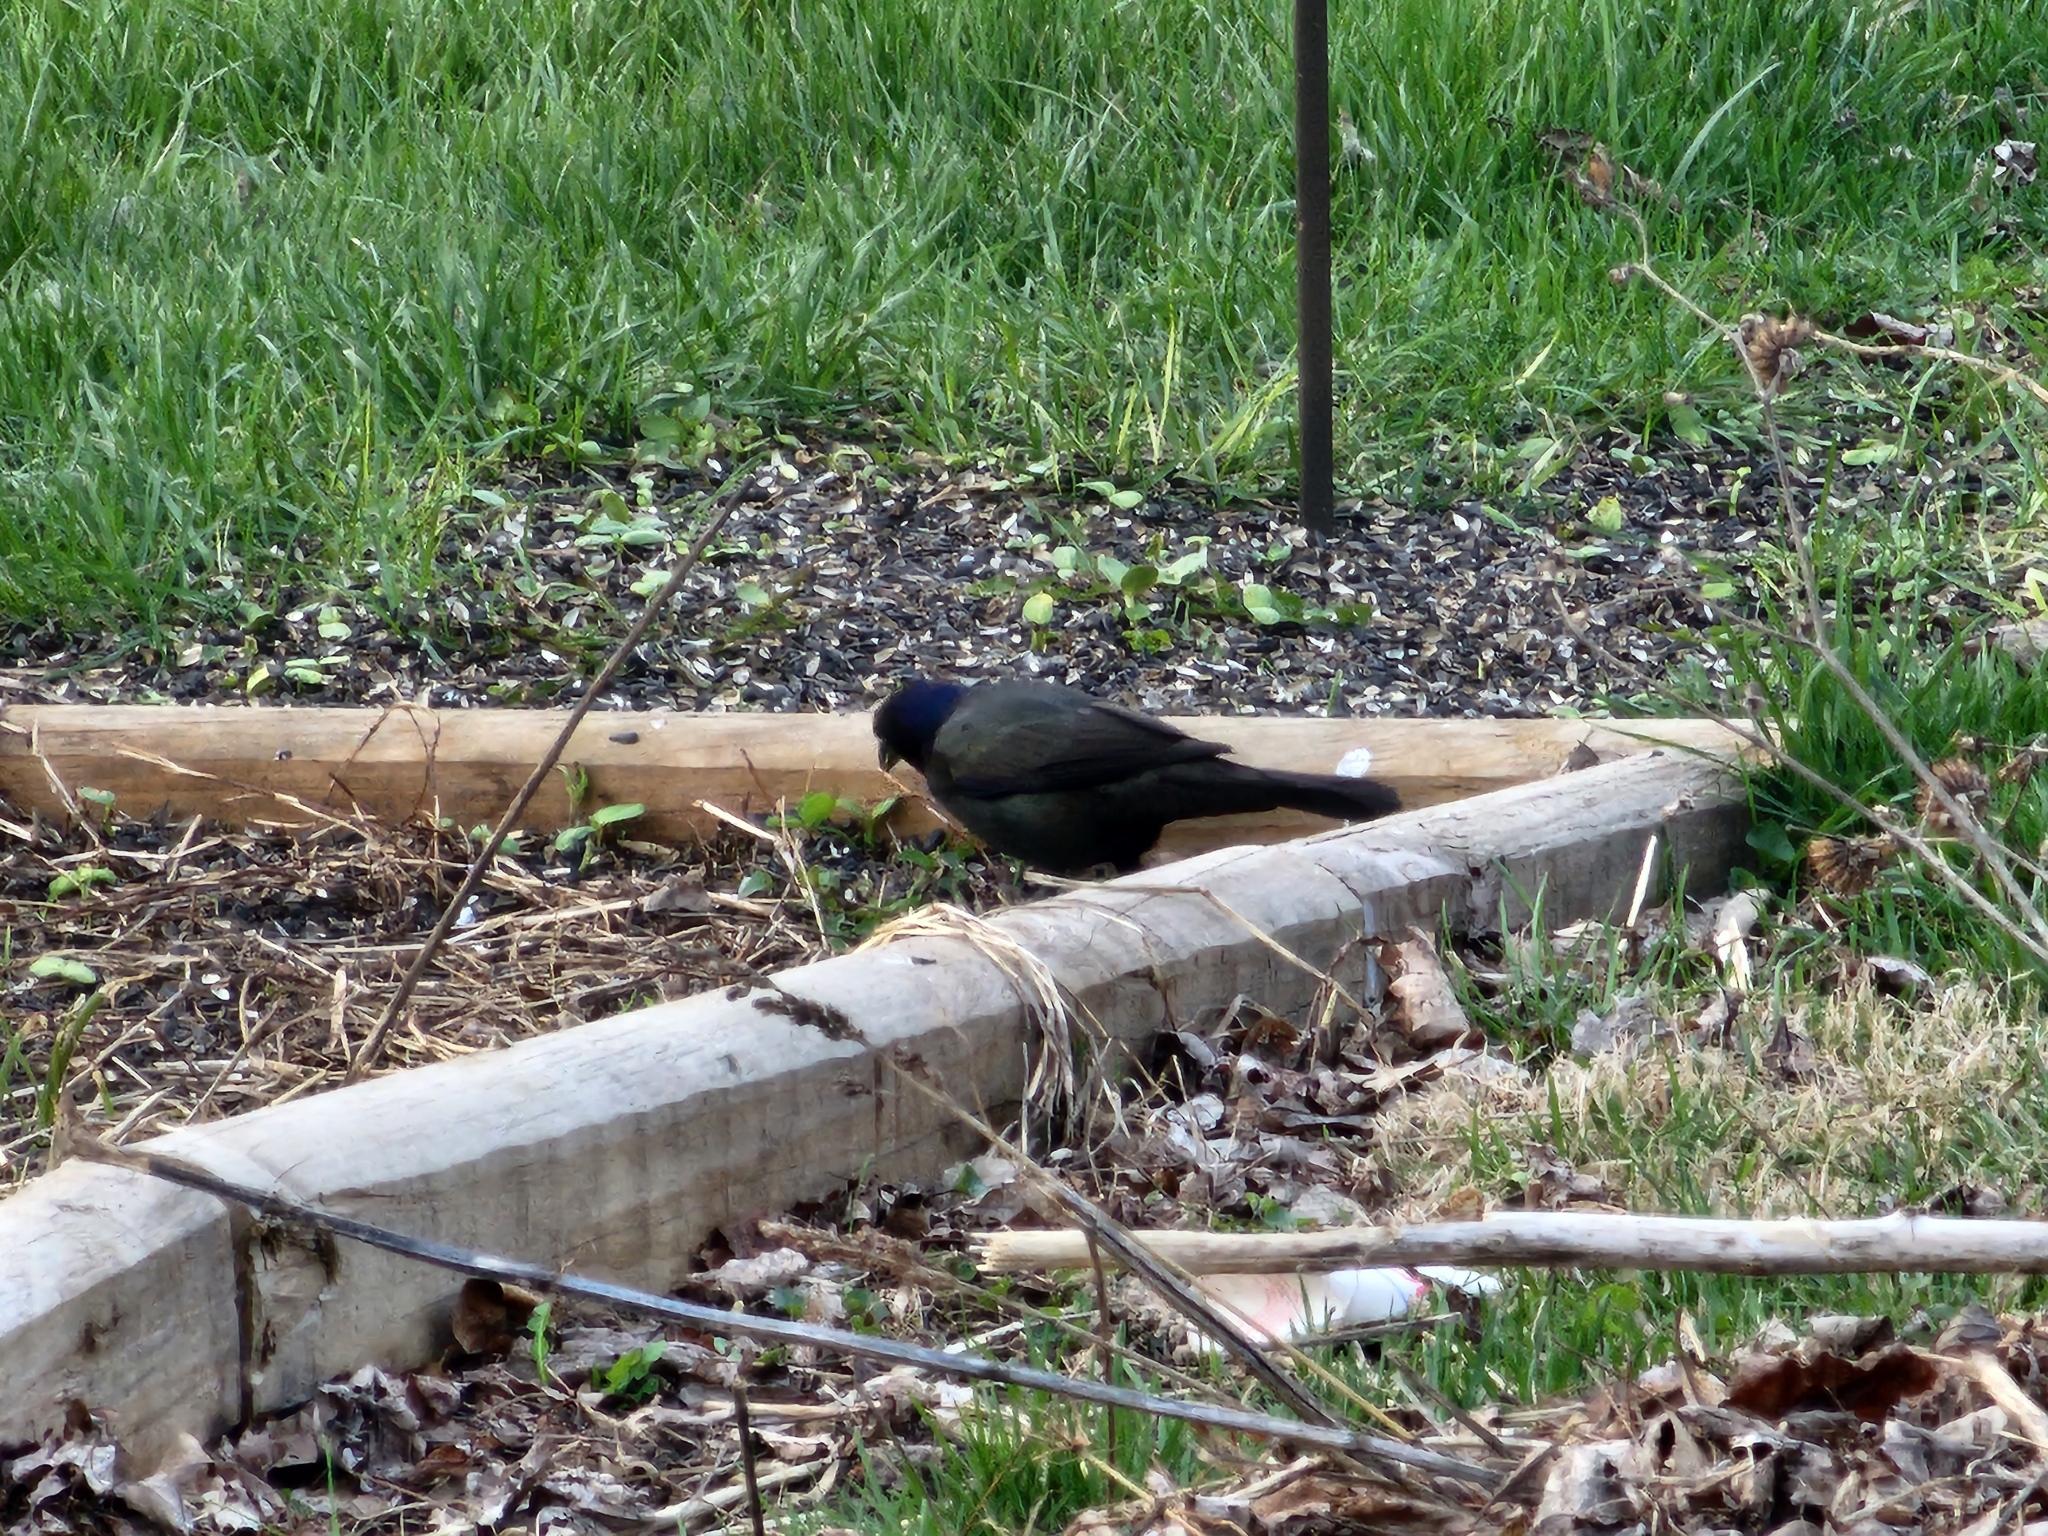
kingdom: Animalia
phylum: Chordata
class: Aves
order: Passeriformes
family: Icteridae
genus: Quiscalus
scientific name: Quiscalus quiscula
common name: Common grackle
